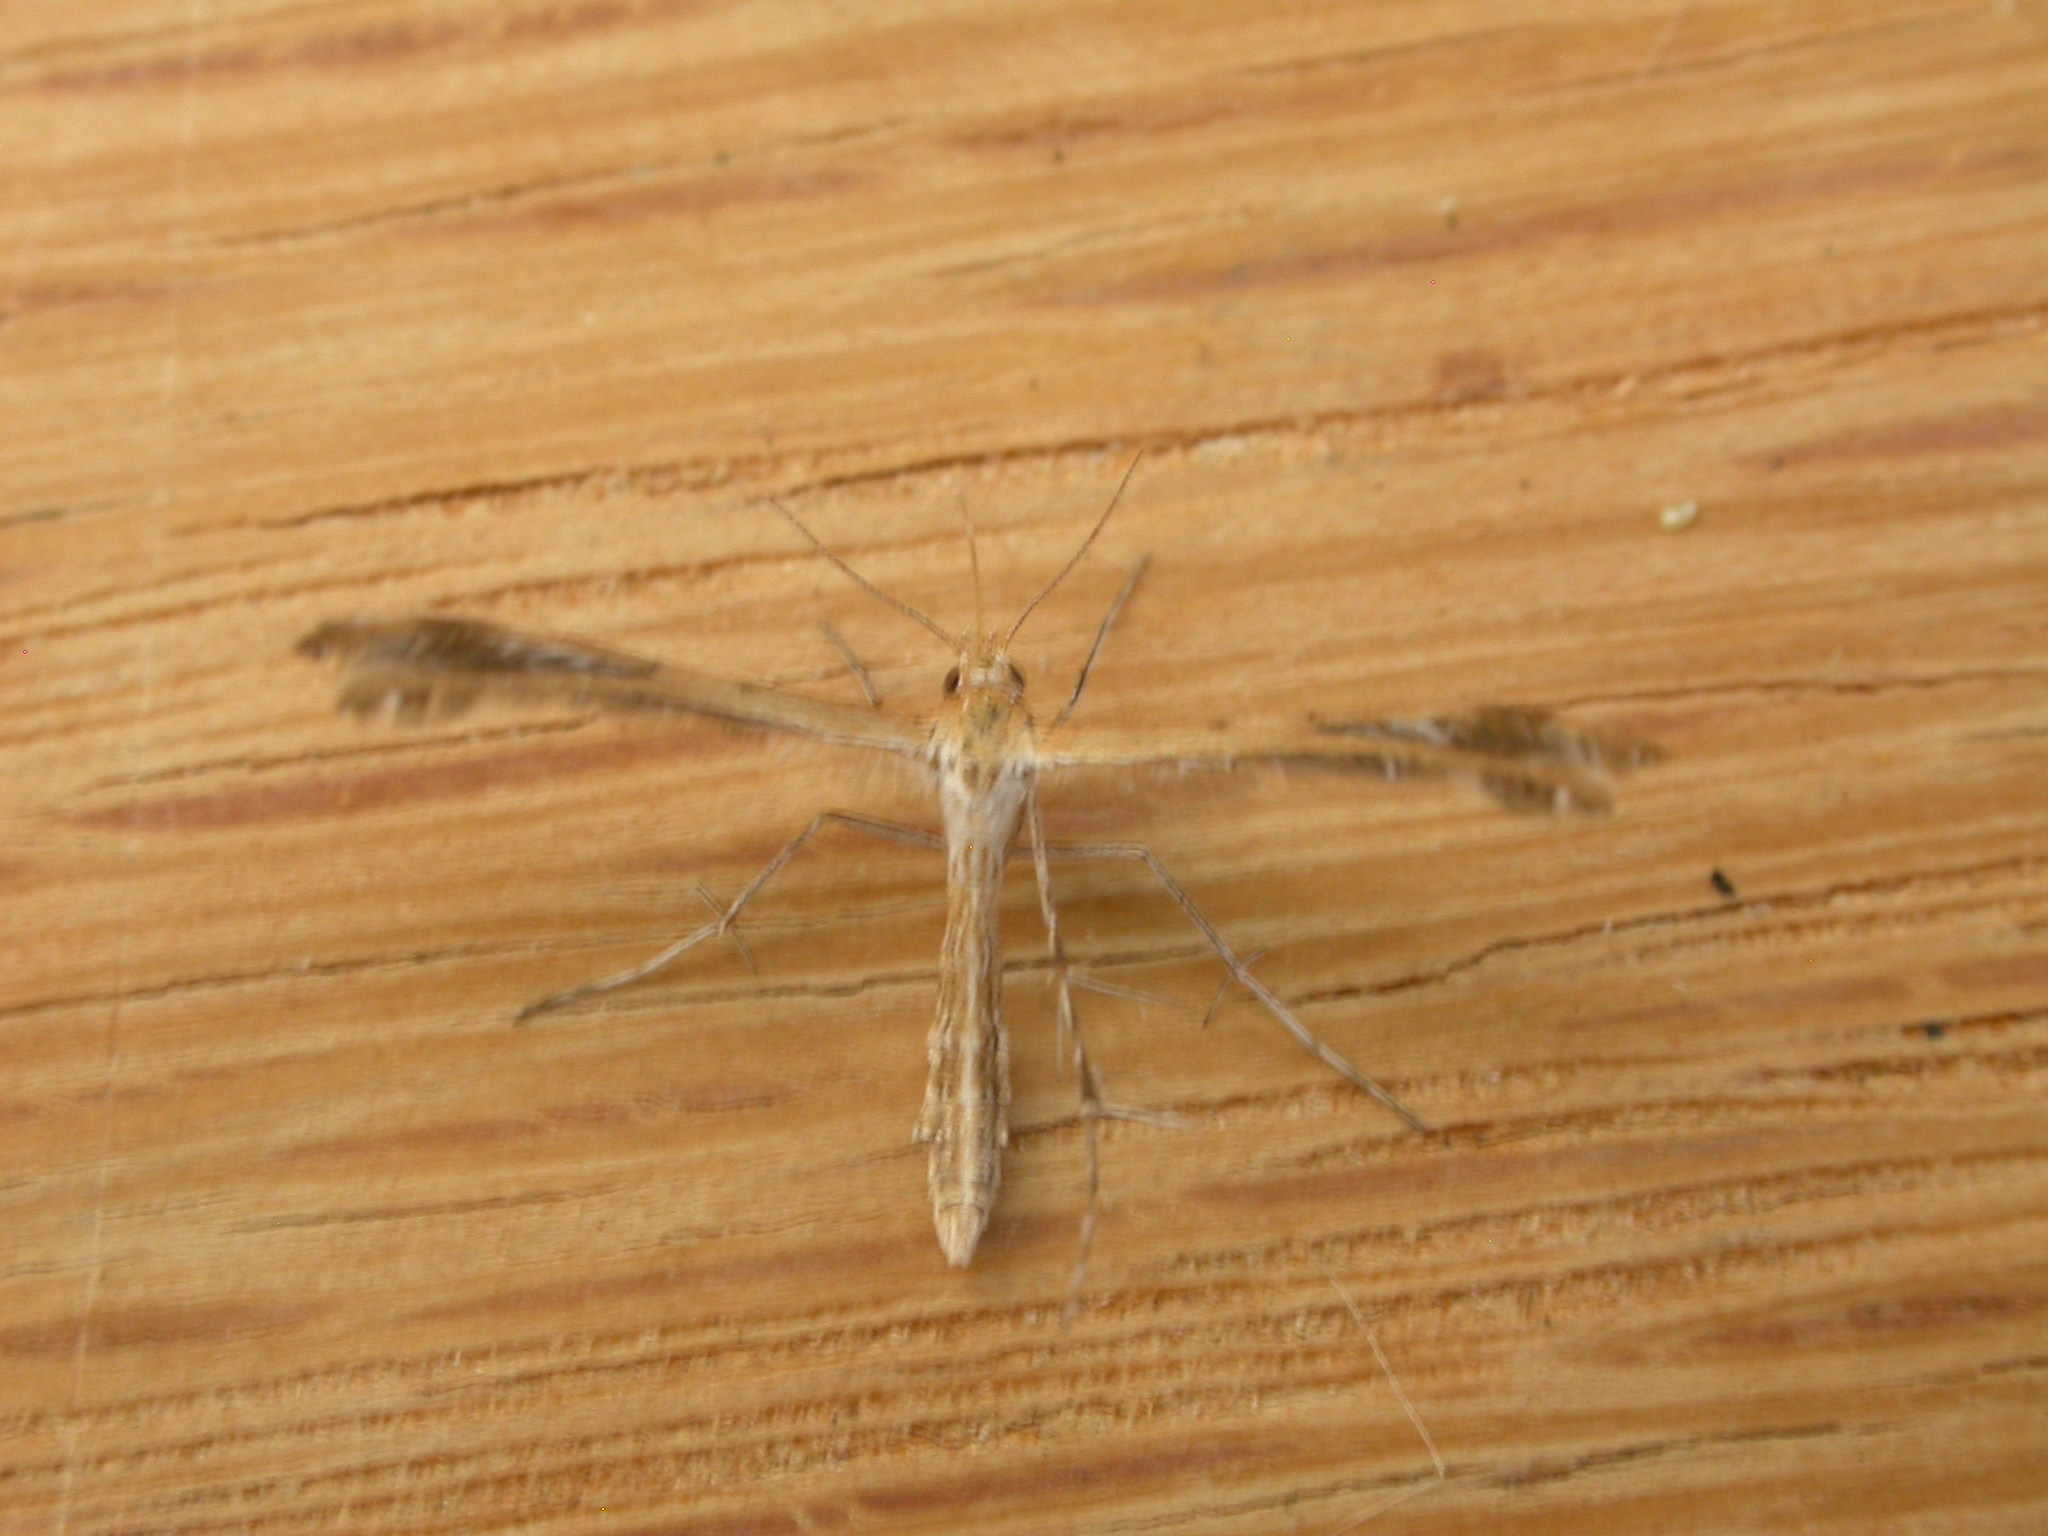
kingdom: Animalia
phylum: Arthropoda
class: Insecta
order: Lepidoptera
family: Pterophoridae
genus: Megalorhipida
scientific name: Megalorhipida leucodactylus
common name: Plume moth
